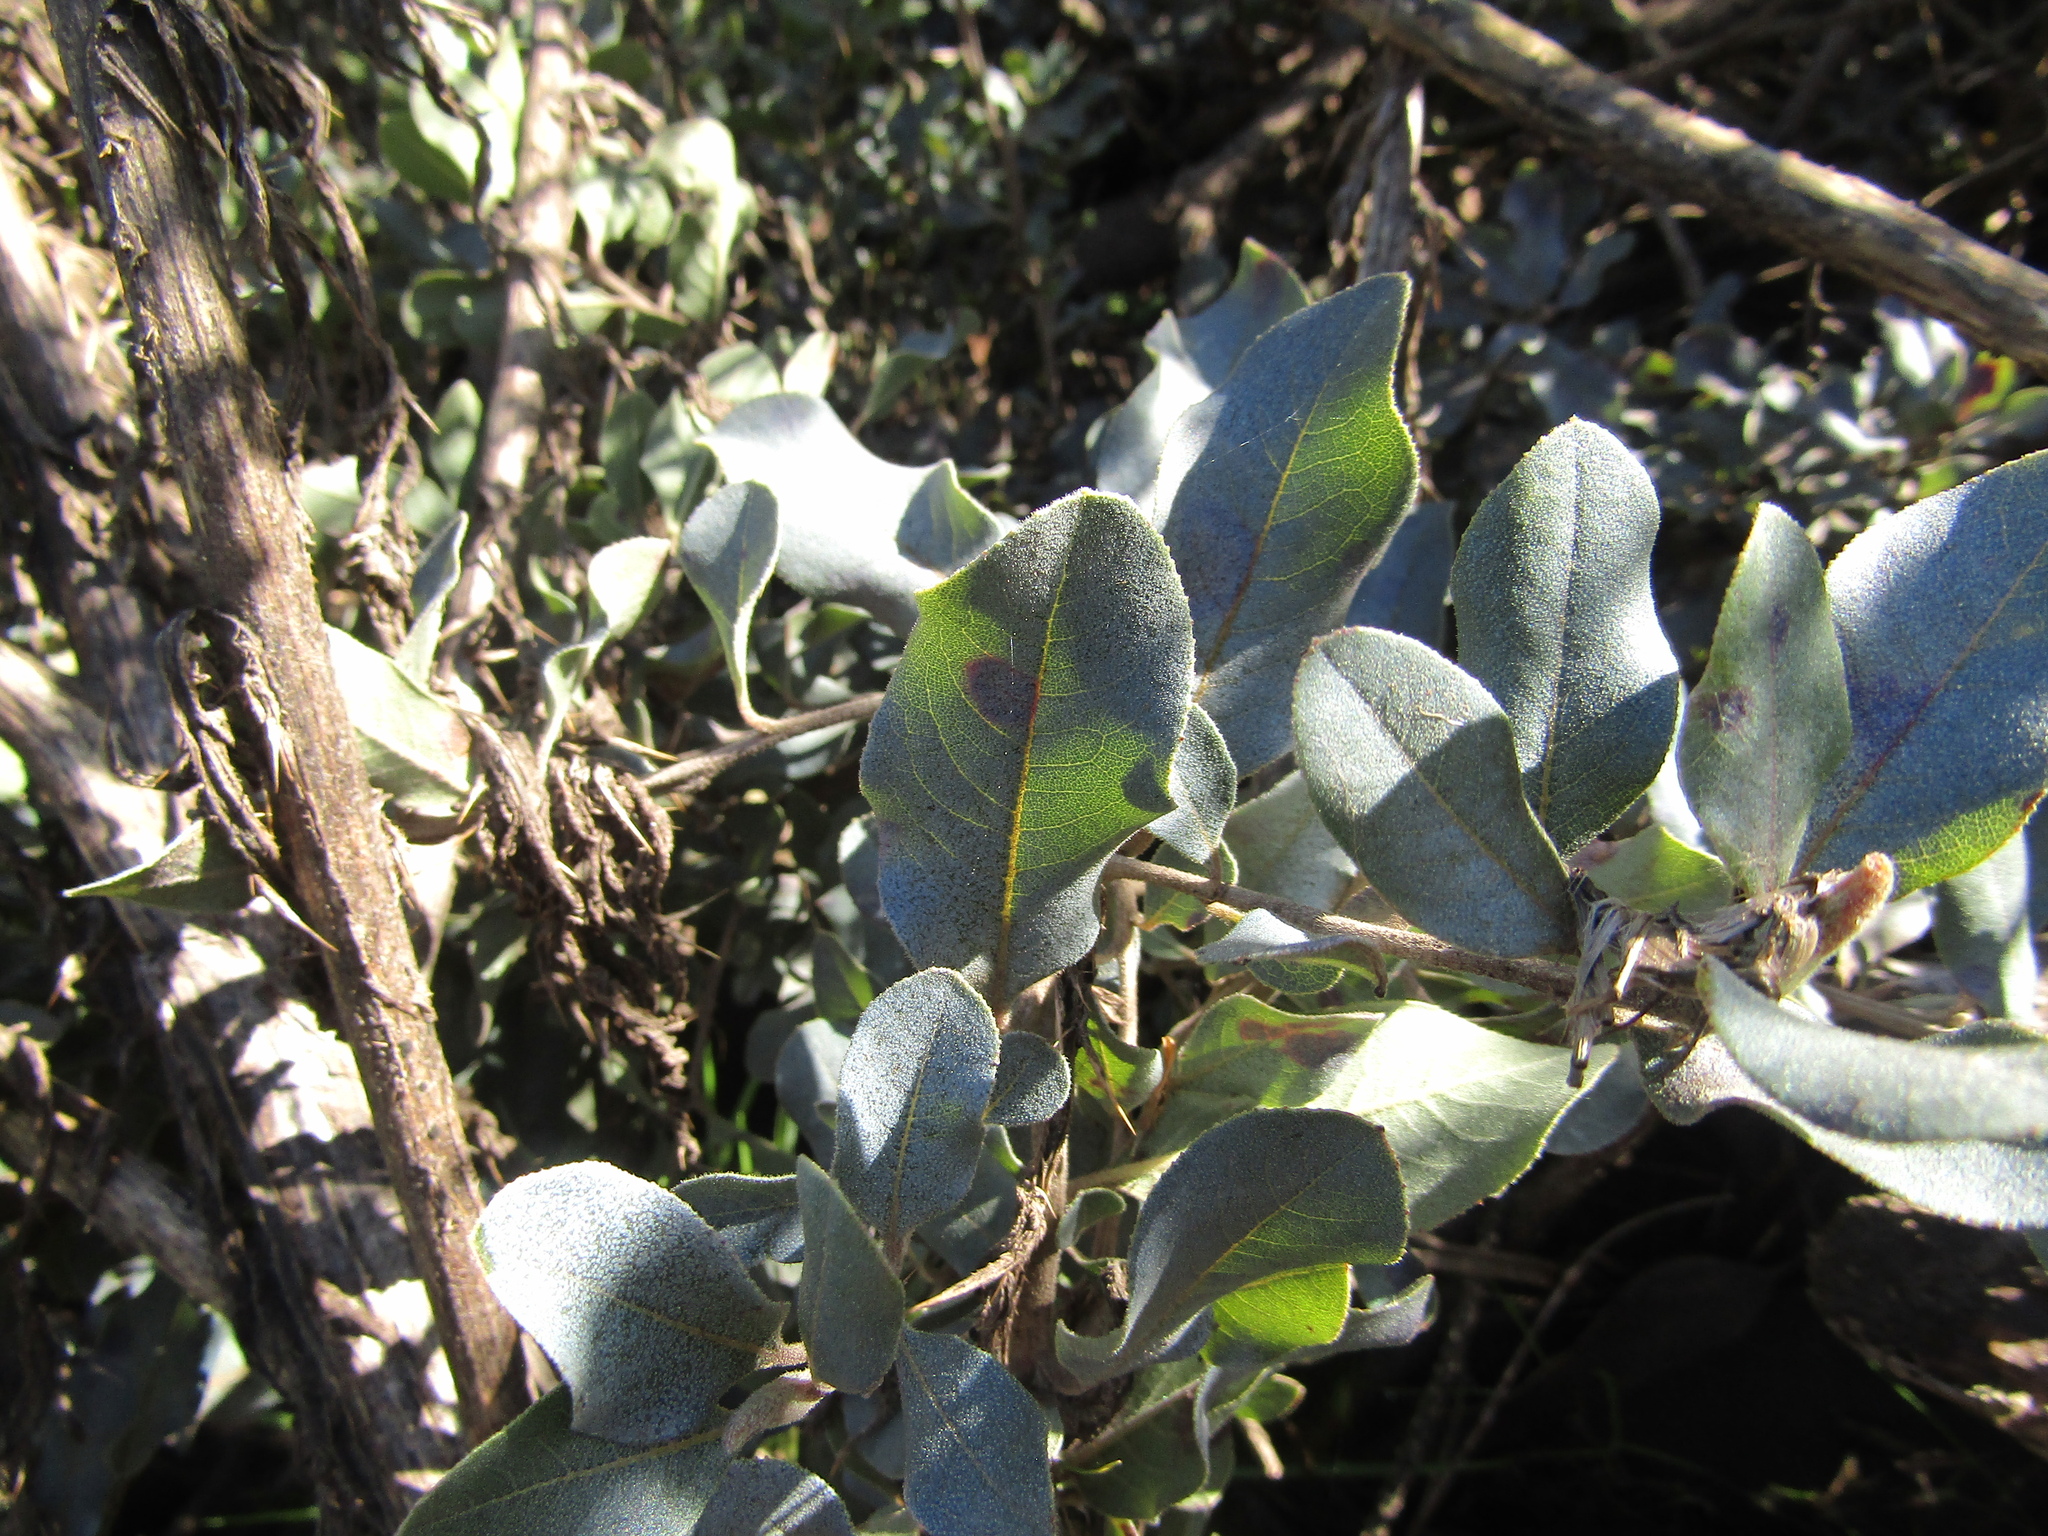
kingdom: Plantae
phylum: Tracheophyta
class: Magnoliopsida
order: Escalloniales
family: Escalloniaceae
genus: Escallonia
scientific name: Escallonia pulverulenta
